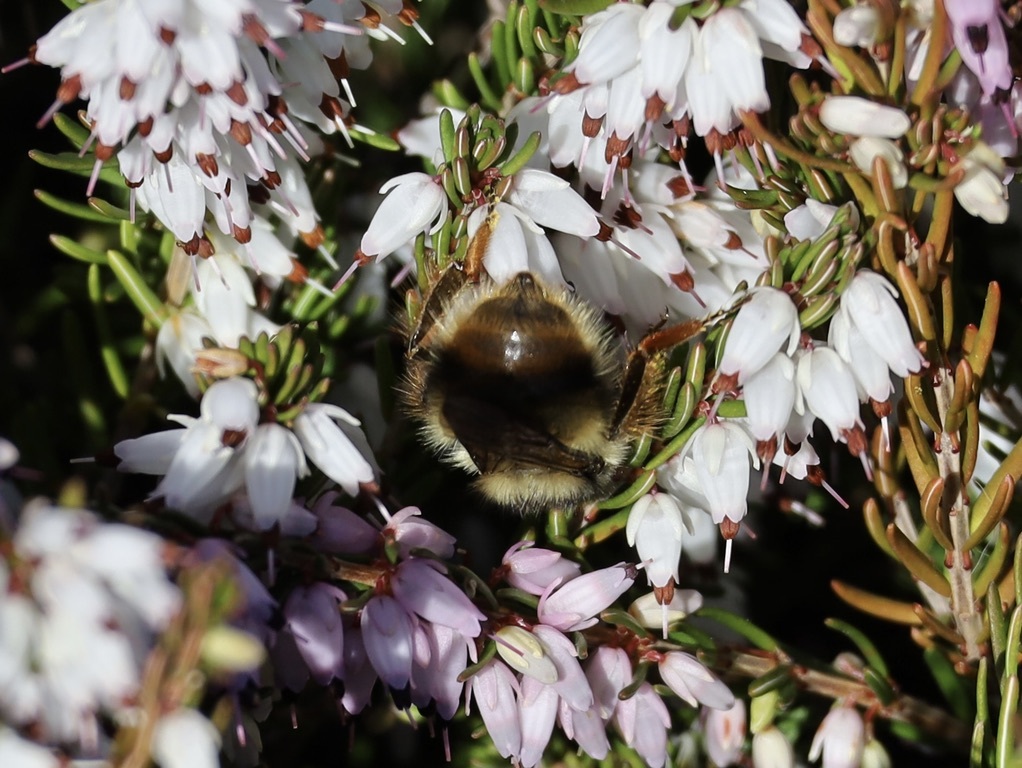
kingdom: Animalia
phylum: Arthropoda
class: Insecta
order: Hymenoptera
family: Apidae
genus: Bombus
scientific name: Bombus mixtus
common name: Fuzzy-horned bumble bee
